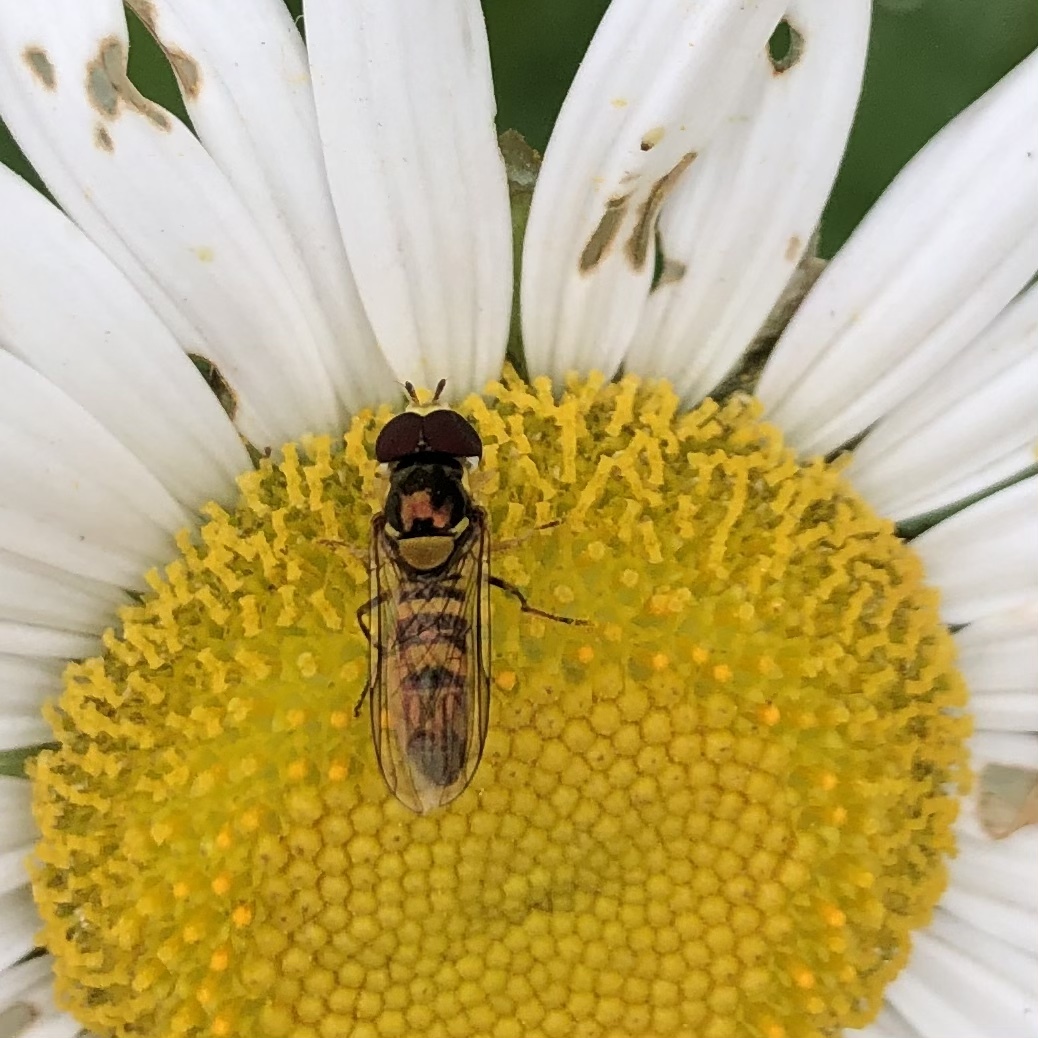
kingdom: Animalia
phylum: Arthropoda
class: Insecta
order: Diptera
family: Syrphidae
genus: Allograpta
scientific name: Allograpta obliqua
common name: Common oblique syrphid
